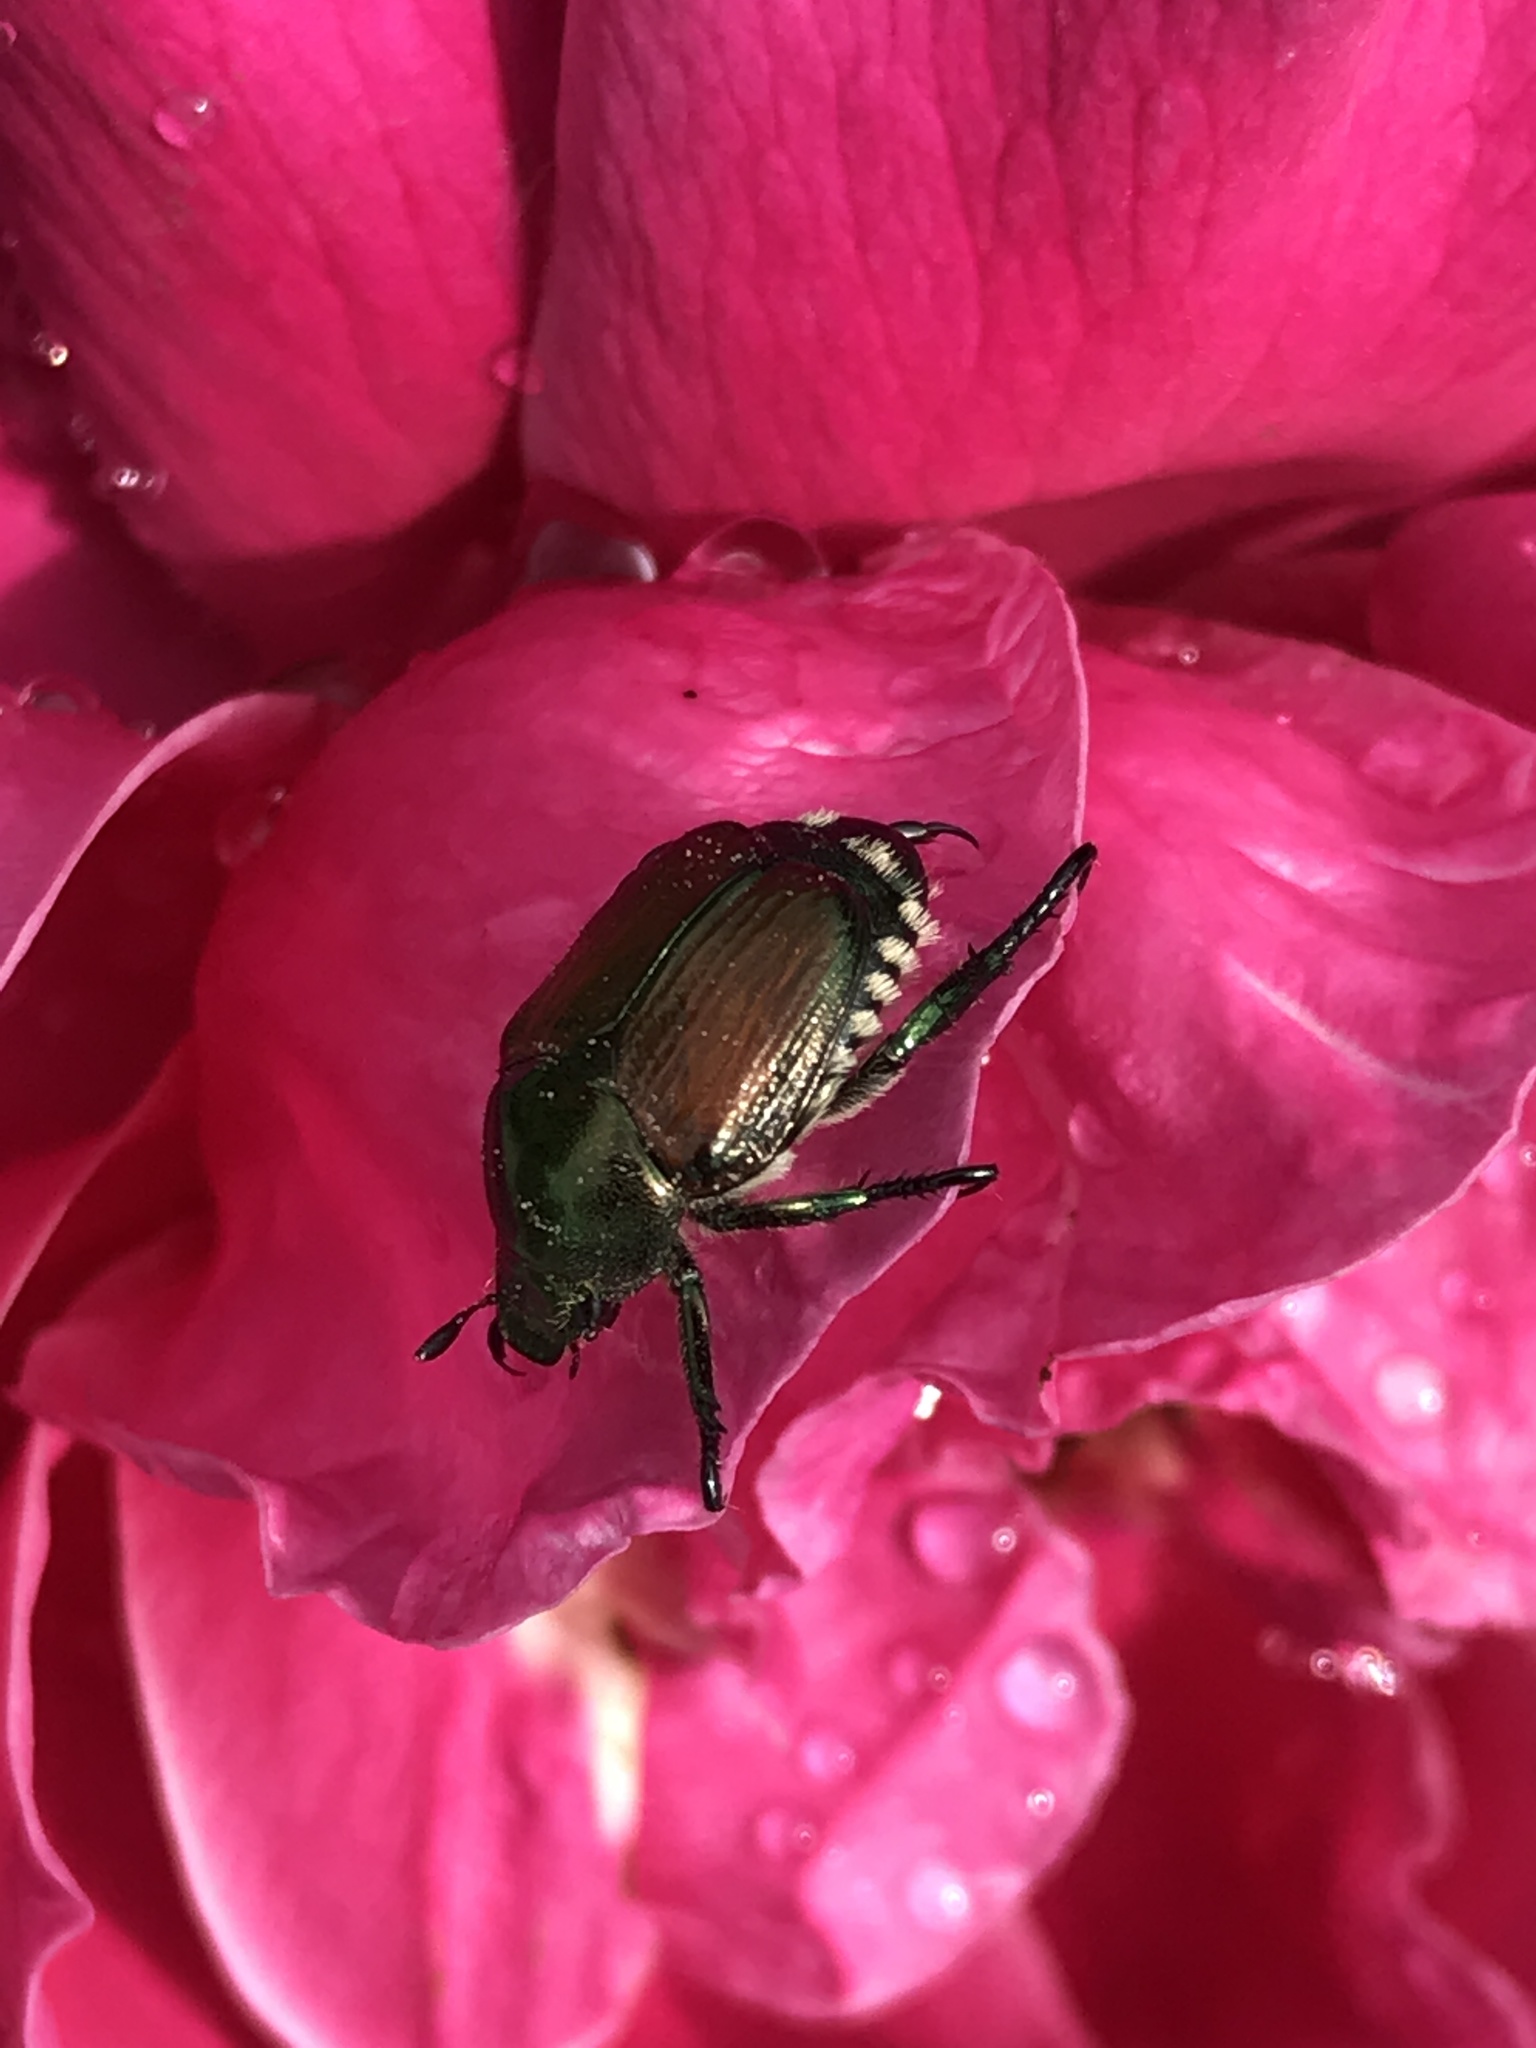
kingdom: Animalia
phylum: Arthropoda
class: Insecta
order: Coleoptera
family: Scarabaeidae
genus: Popillia
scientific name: Popillia japonica
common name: Japanese beetle
